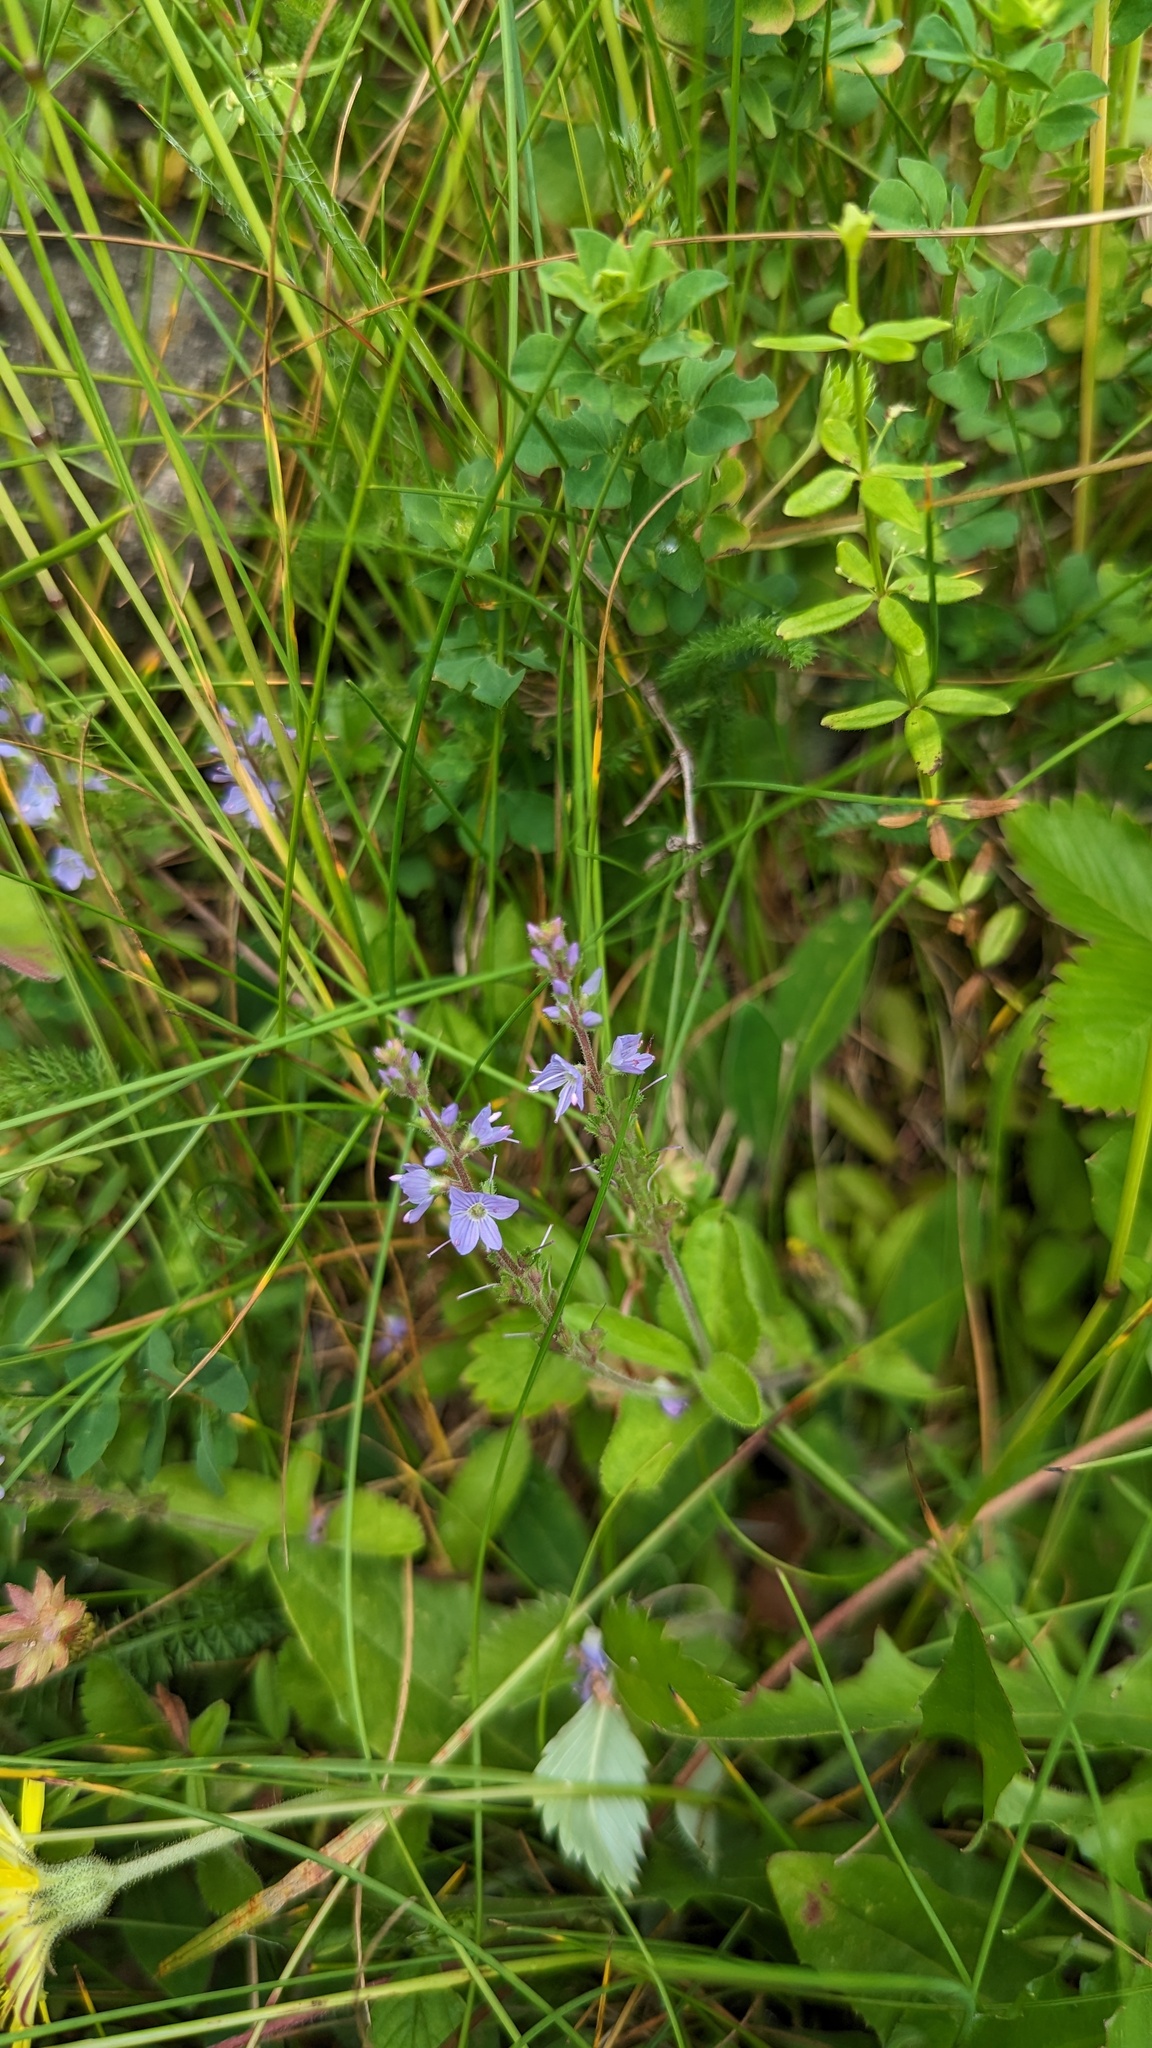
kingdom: Plantae
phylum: Tracheophyta
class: Magnoliopsida
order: Lamiales
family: Plantaginaceae
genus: Veronica
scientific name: Veronica officinalis
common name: Common speedwell
